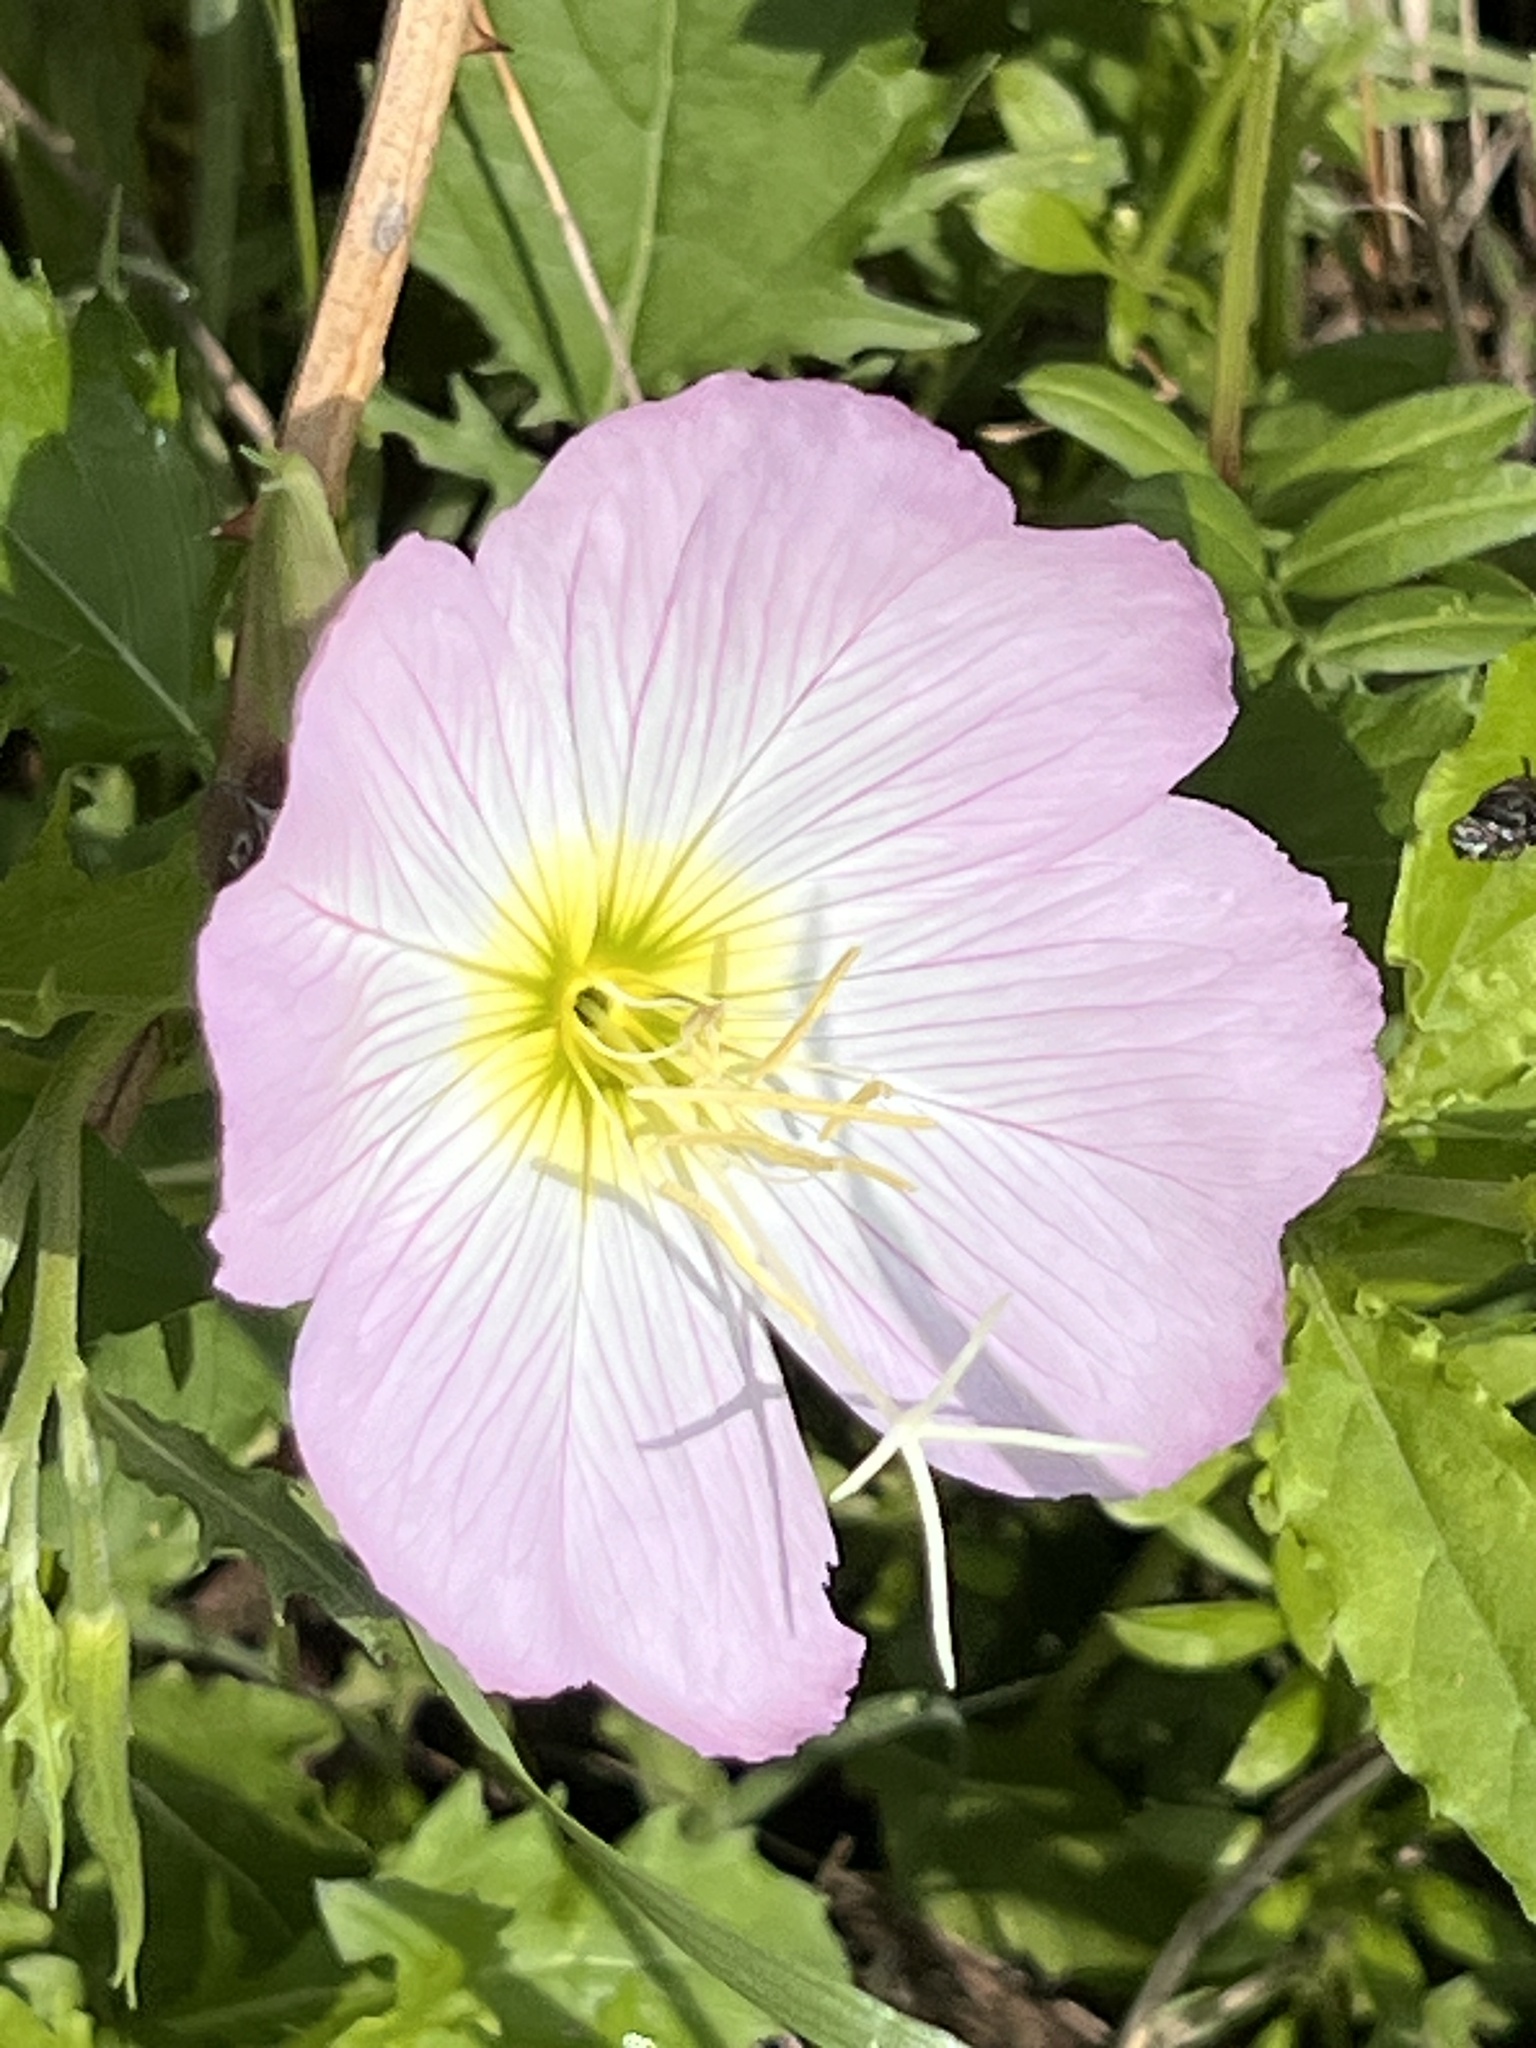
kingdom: Plantae
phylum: Tracheophyta
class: Magnoliopsida
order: Myrtales
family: Onagraceae
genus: Oenothera
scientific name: Oenothera speciosa
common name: White evening-primrose
